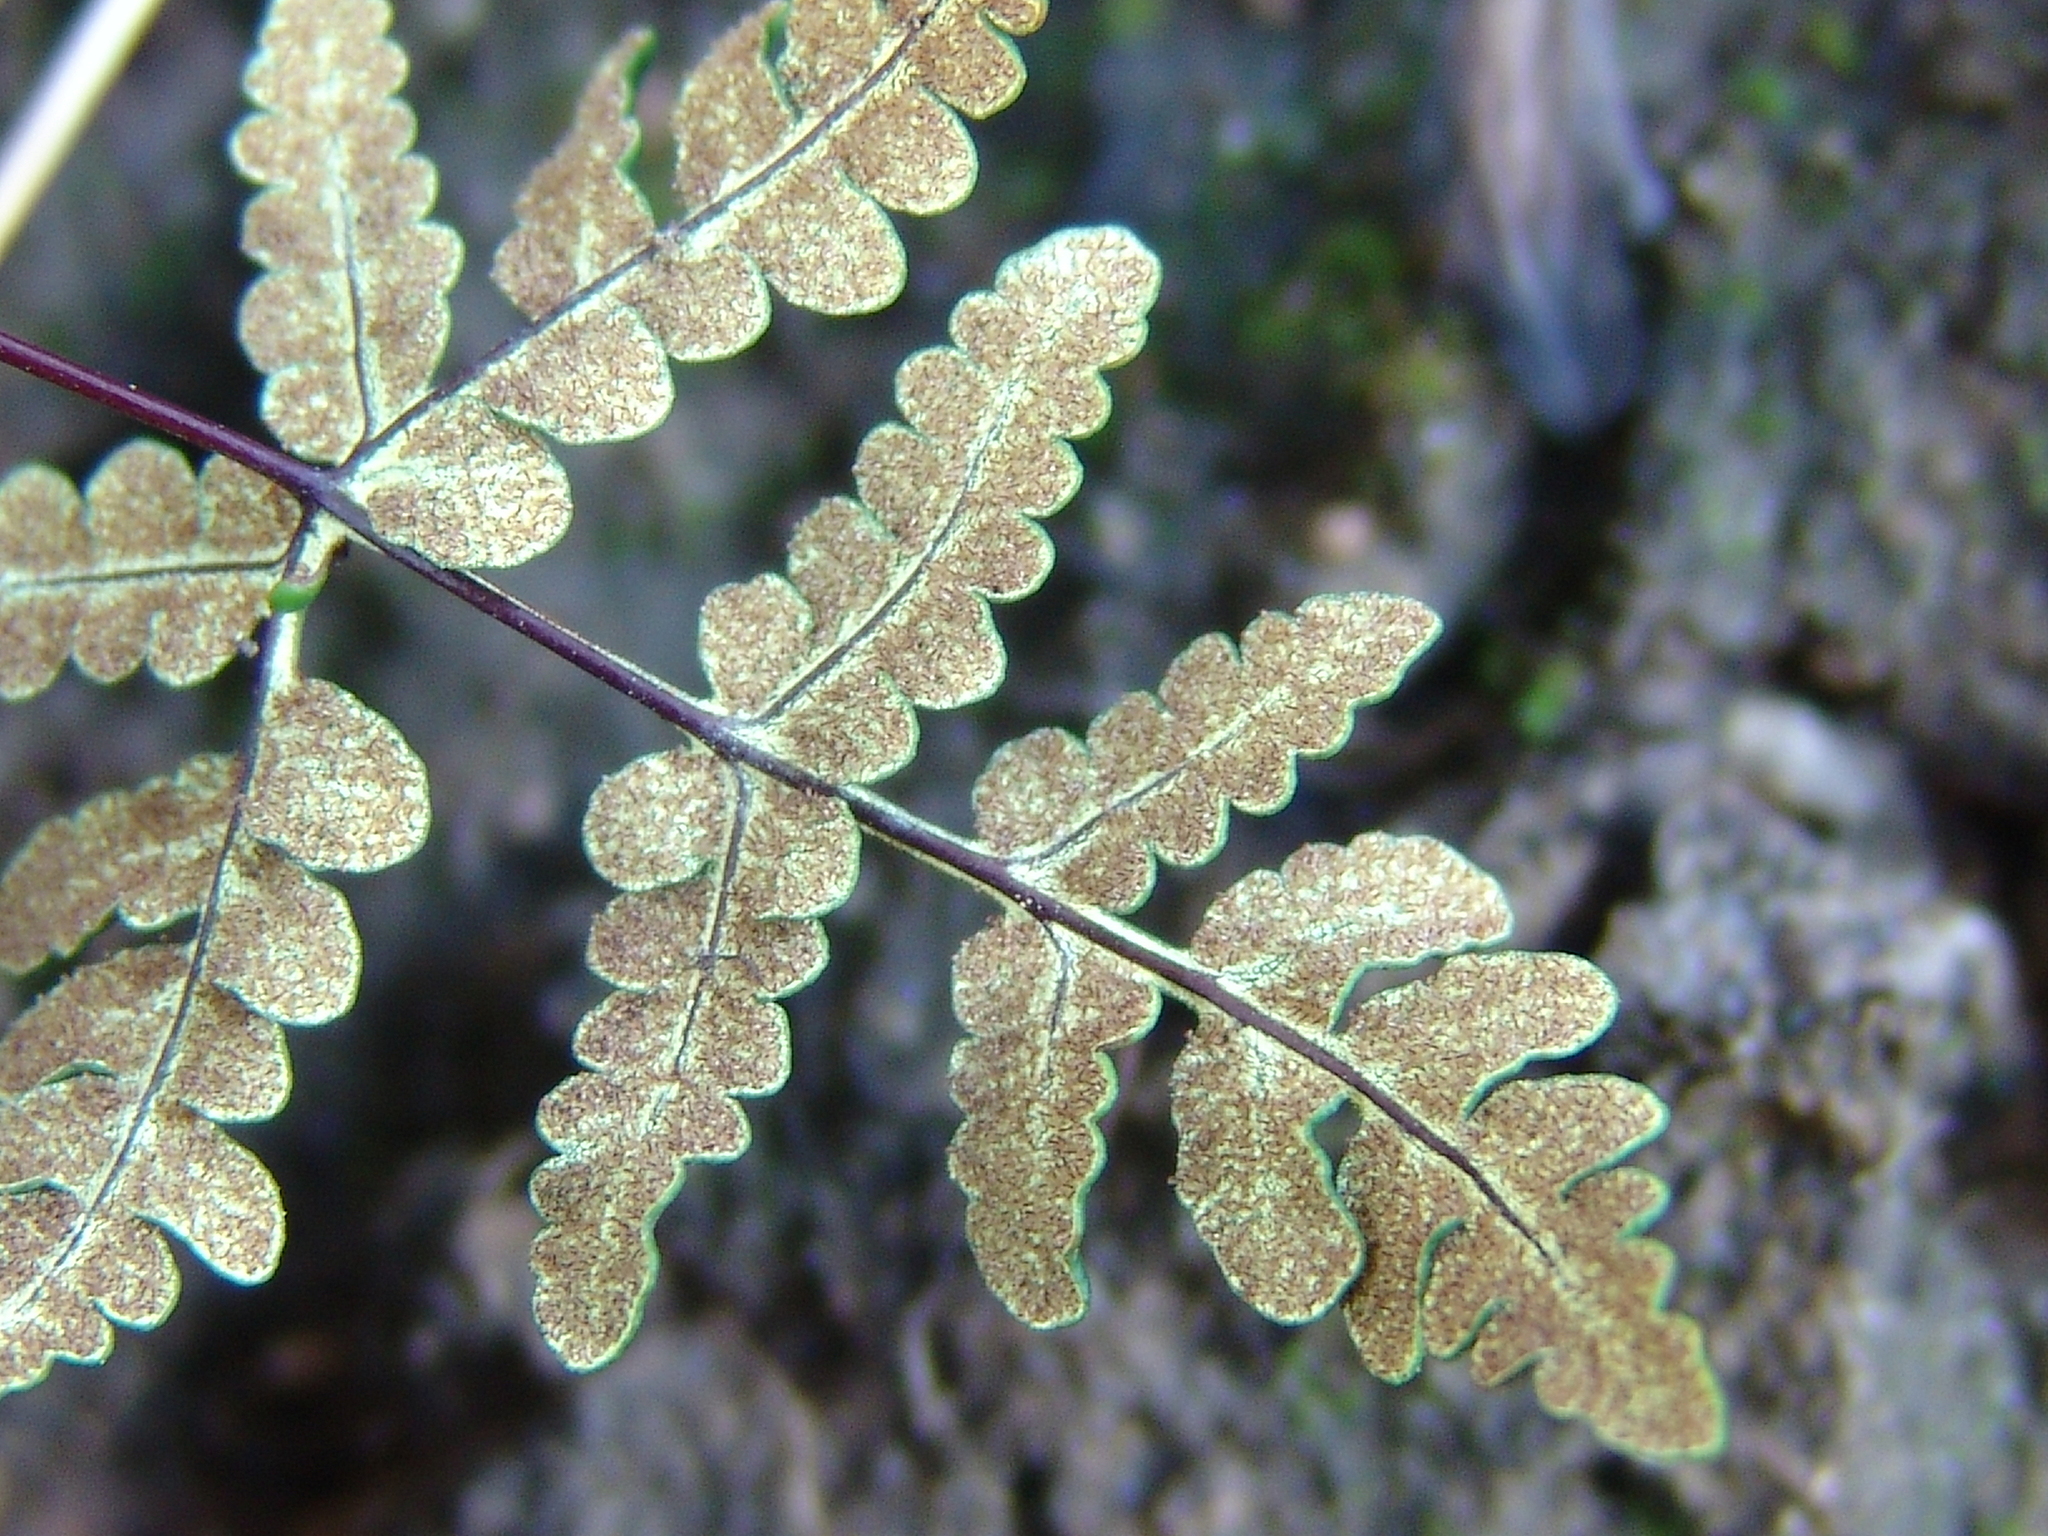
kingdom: Plantae
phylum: Tracheophyta
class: Polypodiopsida
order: Polypodiales
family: Pteridaceae
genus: Pentagramma
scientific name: Pentagramma triangularis
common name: Gold fern
